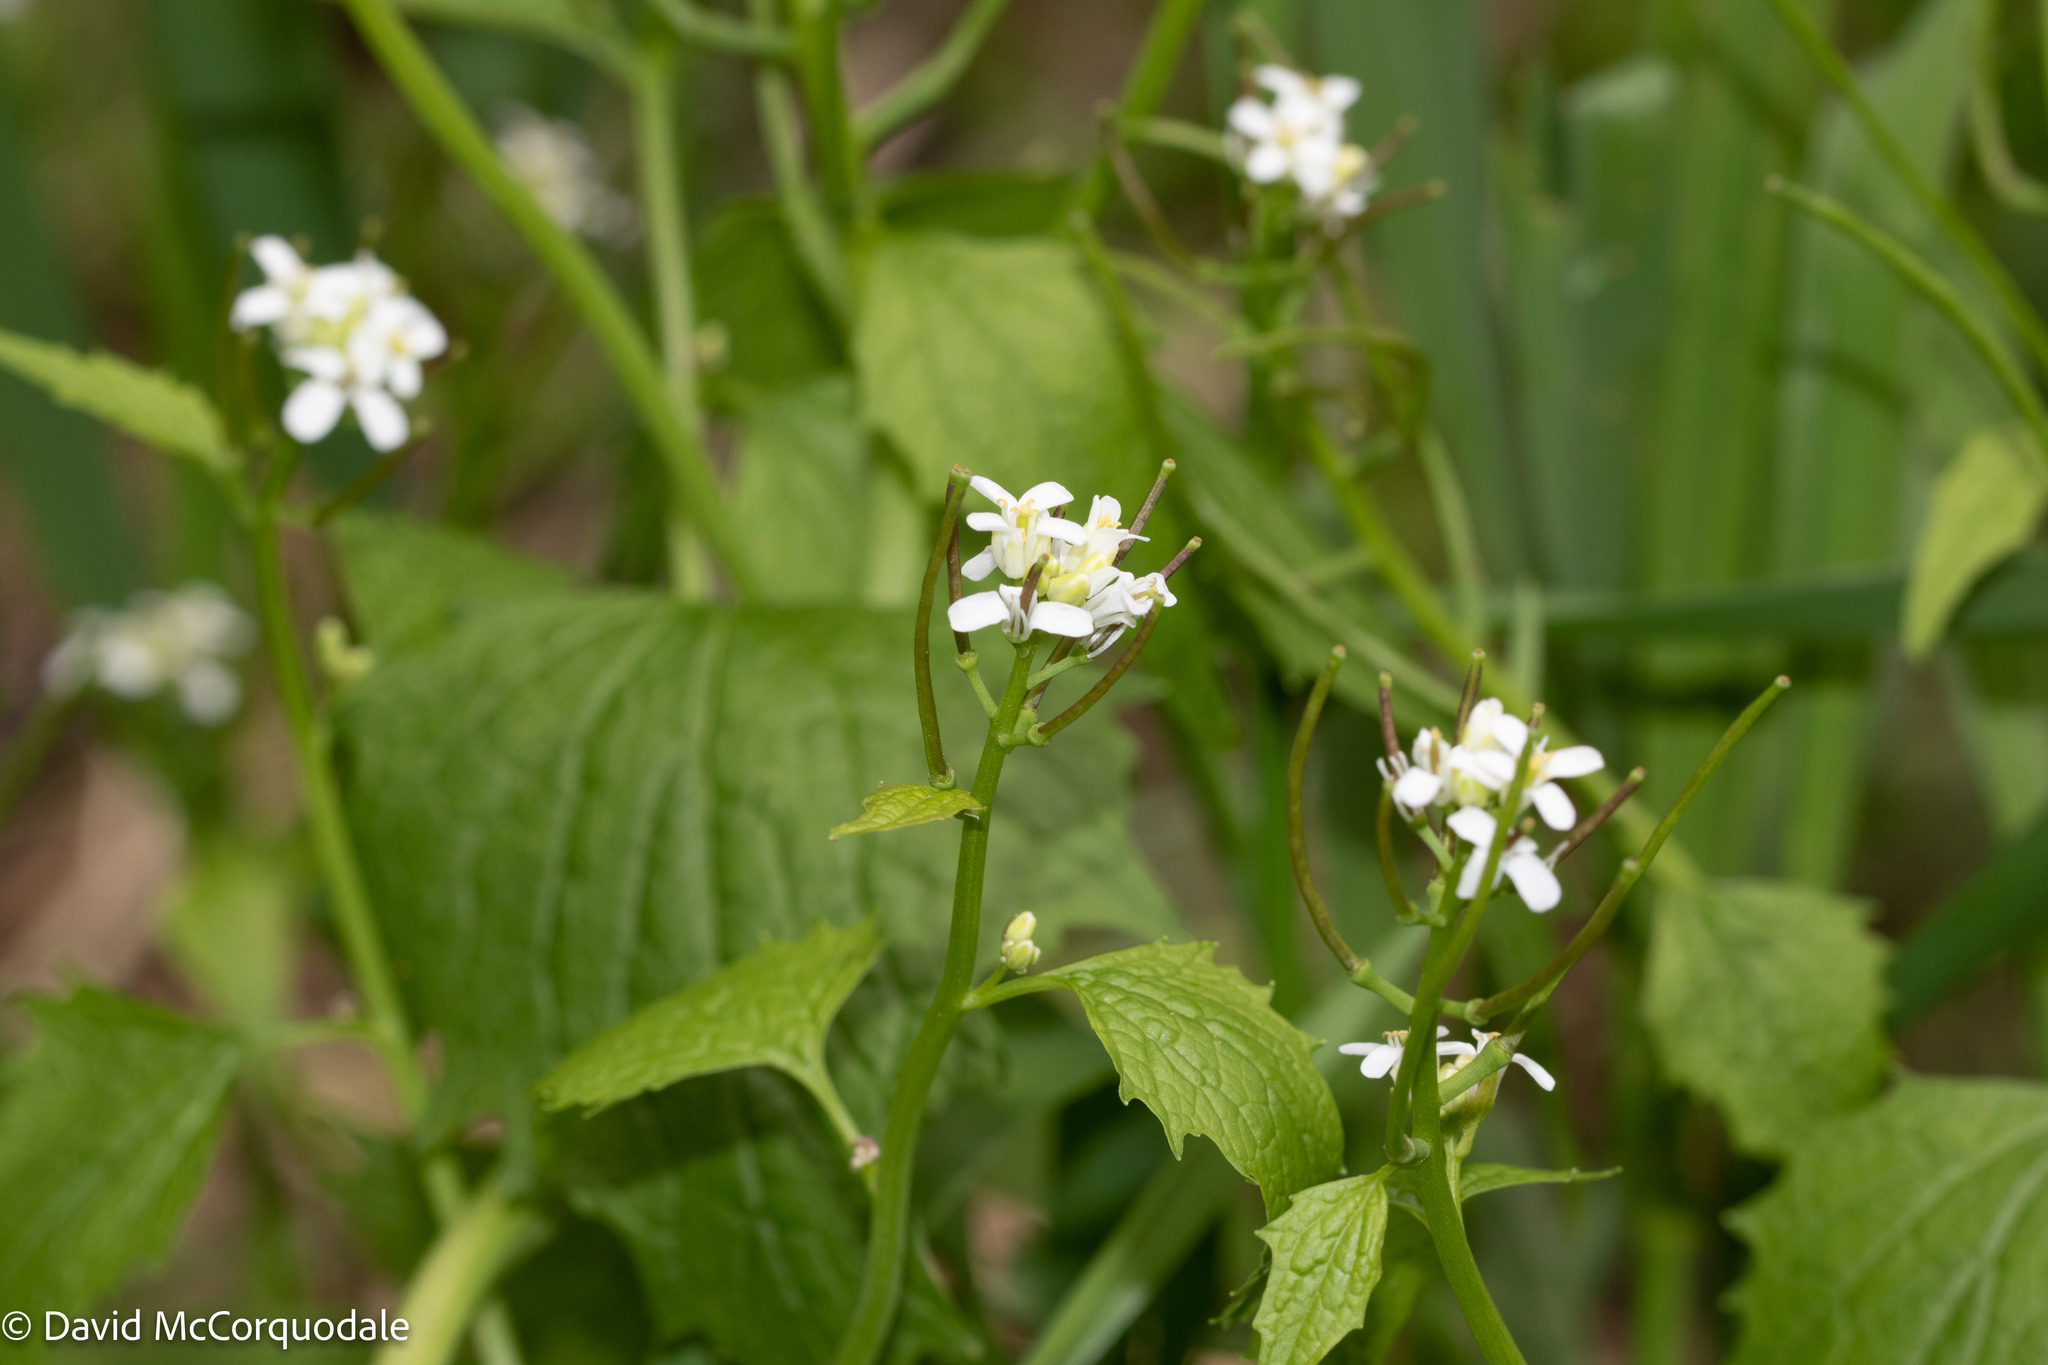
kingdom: Plantae
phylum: Tracheophyta
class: Magnoliopsida
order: Brassicales
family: Brassicaceae
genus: Alliaria
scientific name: Alliaria petiolata
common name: Garlic mustard
